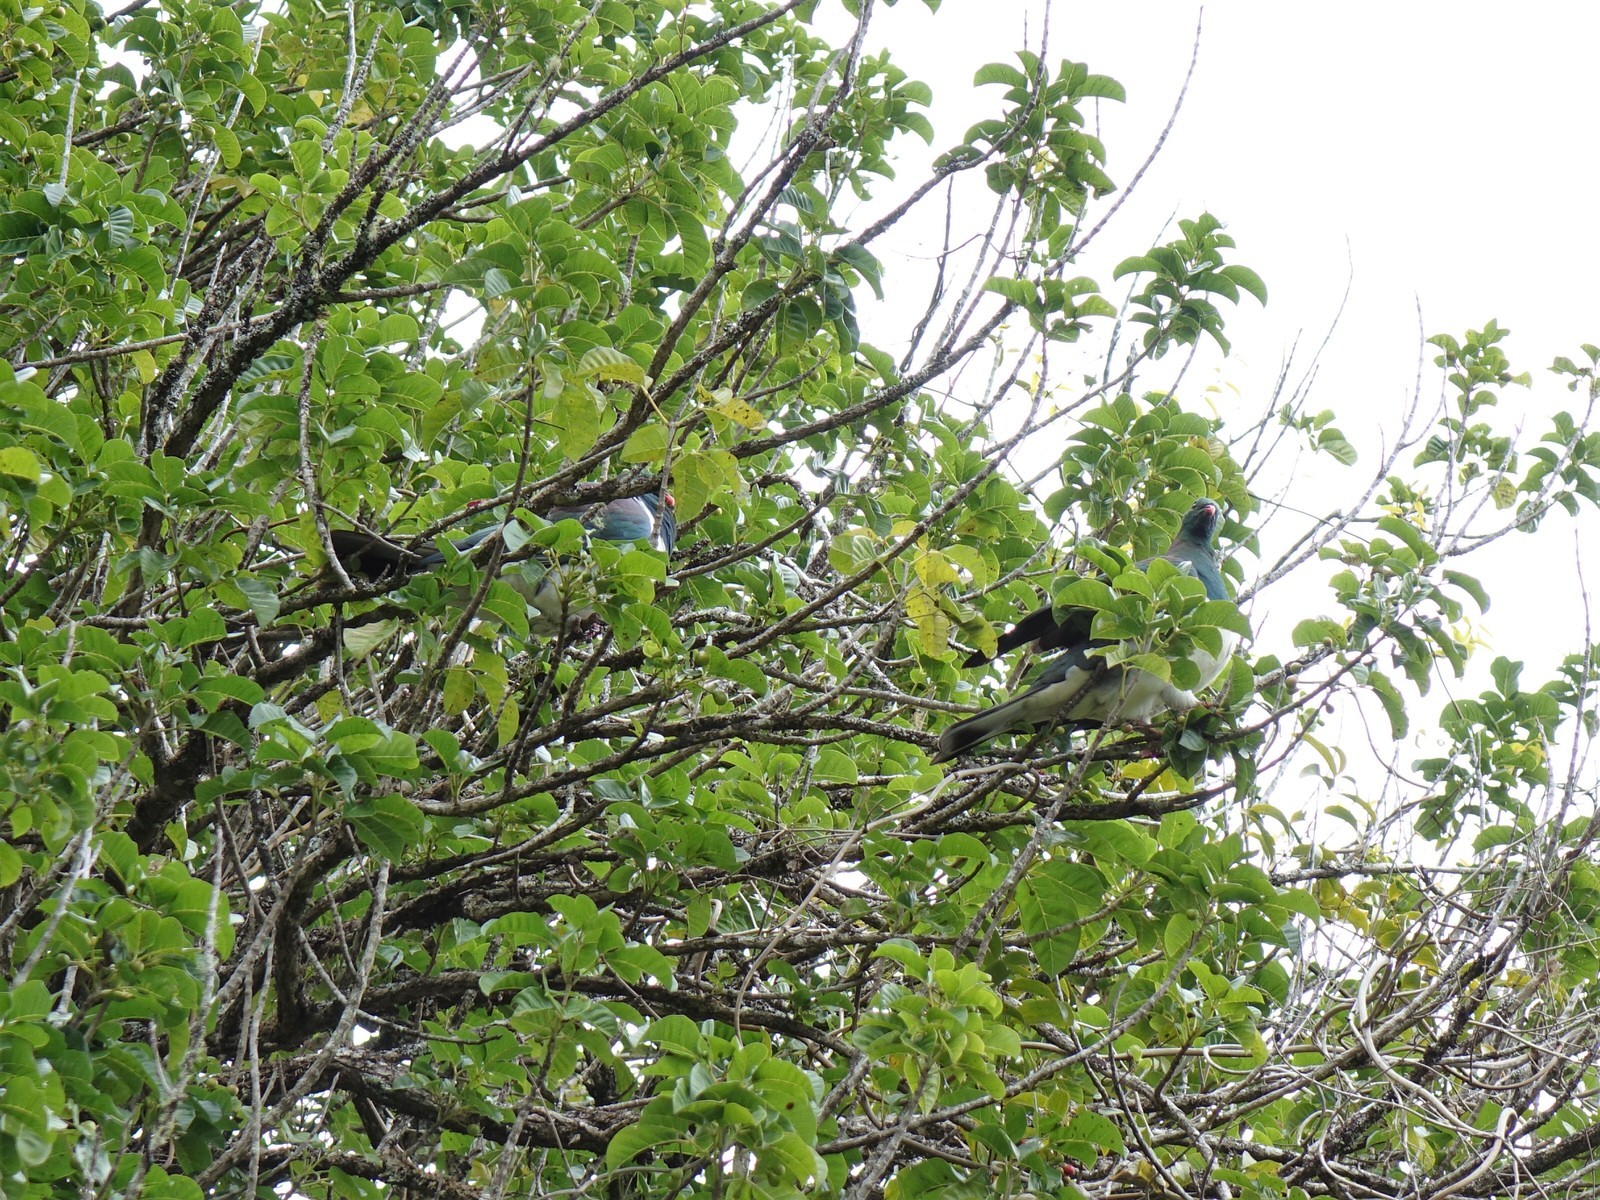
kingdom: Animalia
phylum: Chordata
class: Aves
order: Columbiformes
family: Columbidae
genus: Hemiphaga
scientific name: Hemiphaga novaeseelandiae
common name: New zealand pigeon
